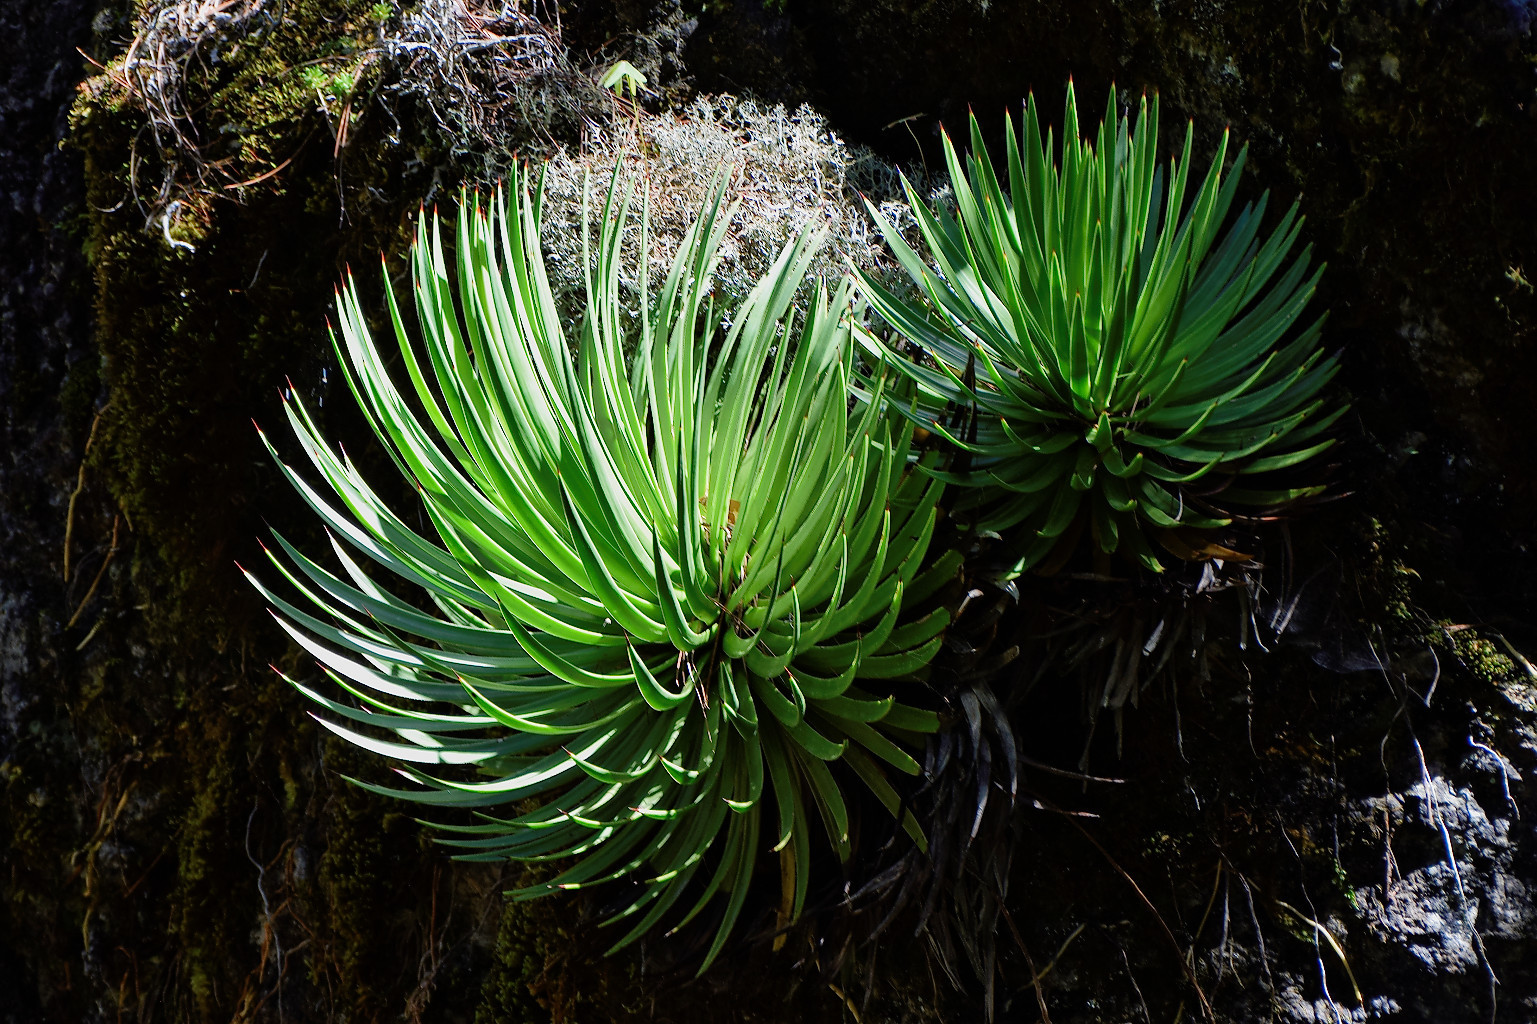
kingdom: Plantae
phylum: Tracheophyta
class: Liliopsida
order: Asparagales
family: Asparagaceae
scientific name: Asparagaceae
